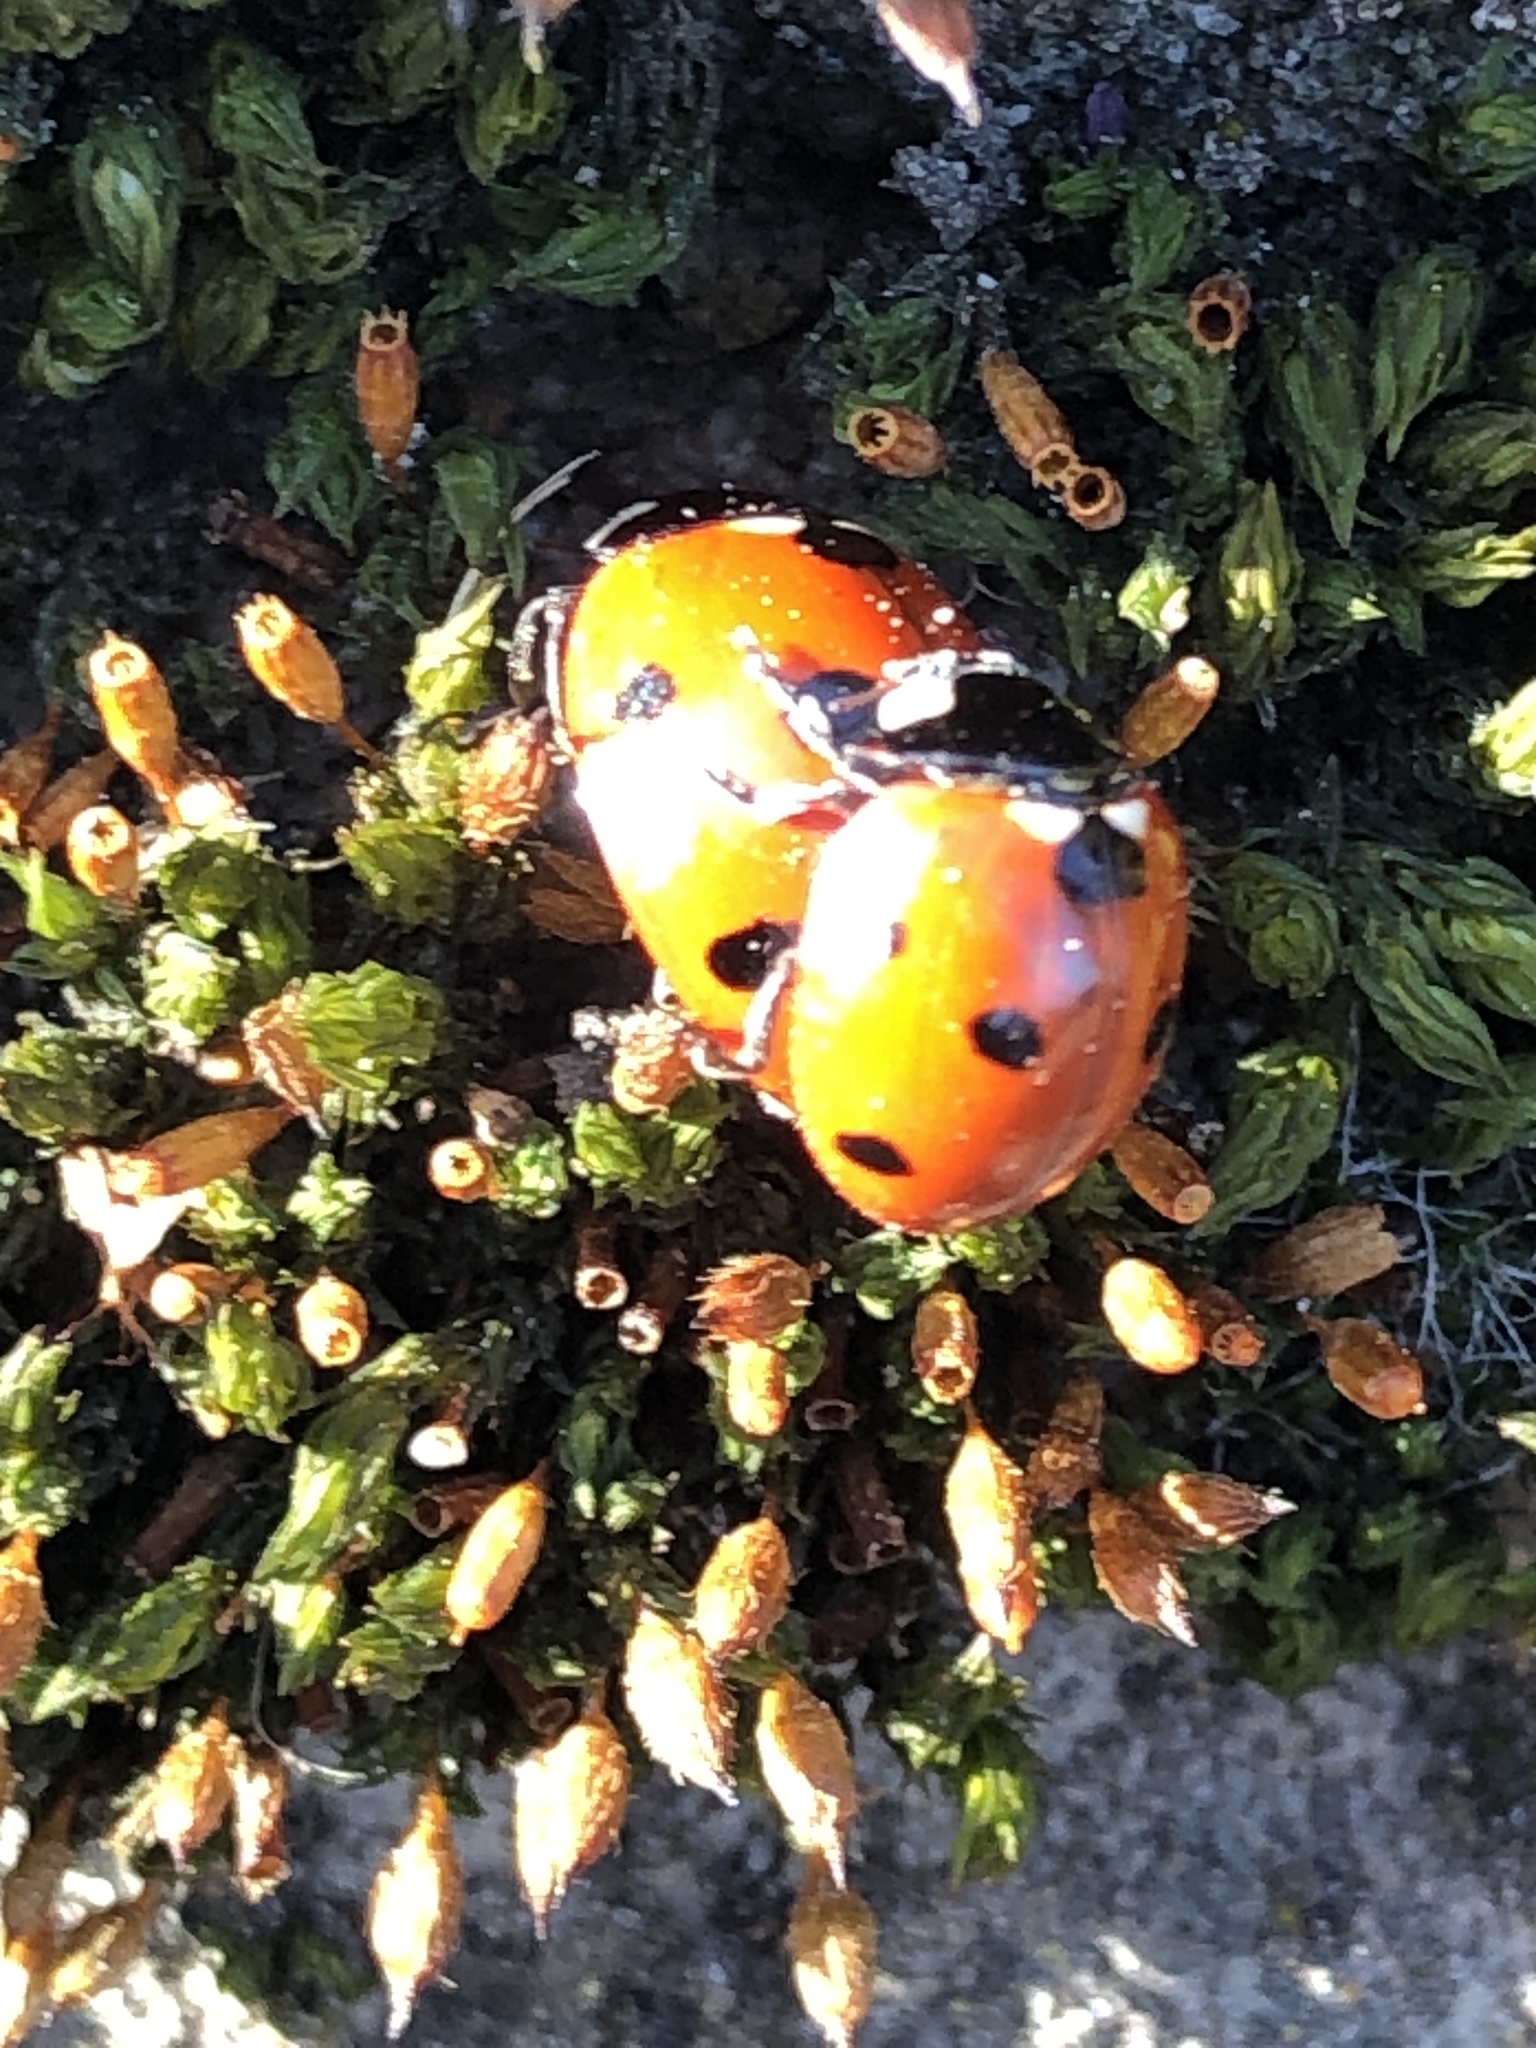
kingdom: Animalia
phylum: Arthropoda
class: Insecta
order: Coleoptera
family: Coccinellidae
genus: Coccinella
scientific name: Coccinella septempunctata
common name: Sevenspotted lady beetle
